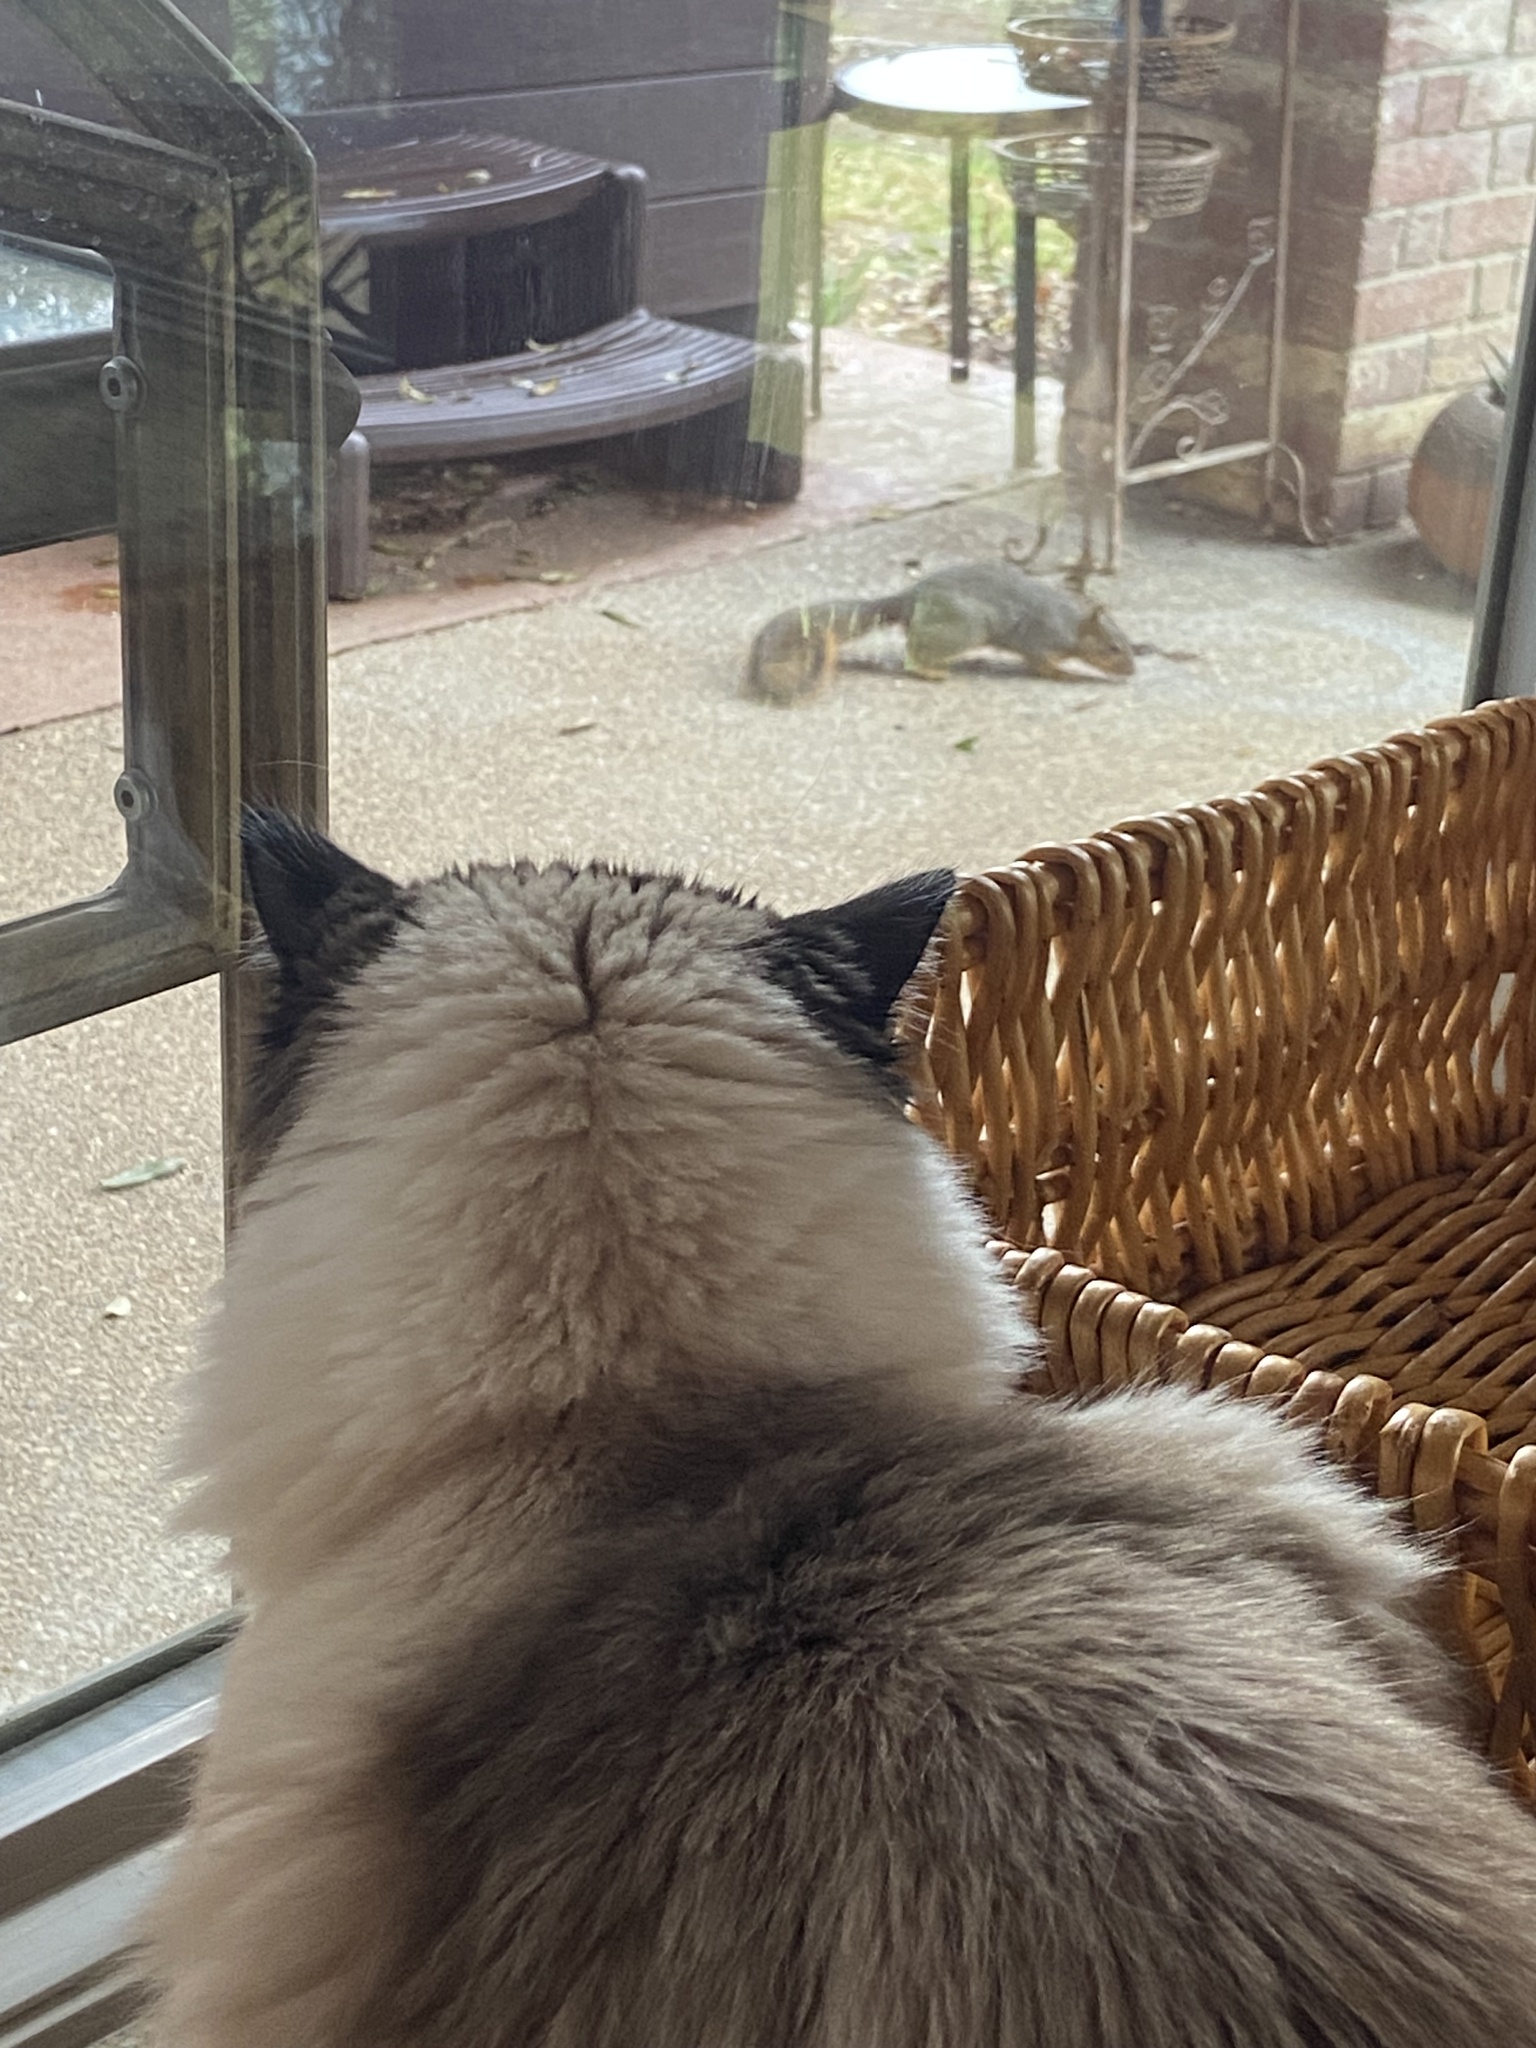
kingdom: Animalia
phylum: Chordata
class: Mammalia
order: Rodentia
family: Sciuridae
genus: Sciurus
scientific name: Sciurus niger
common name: Fox squirrel
